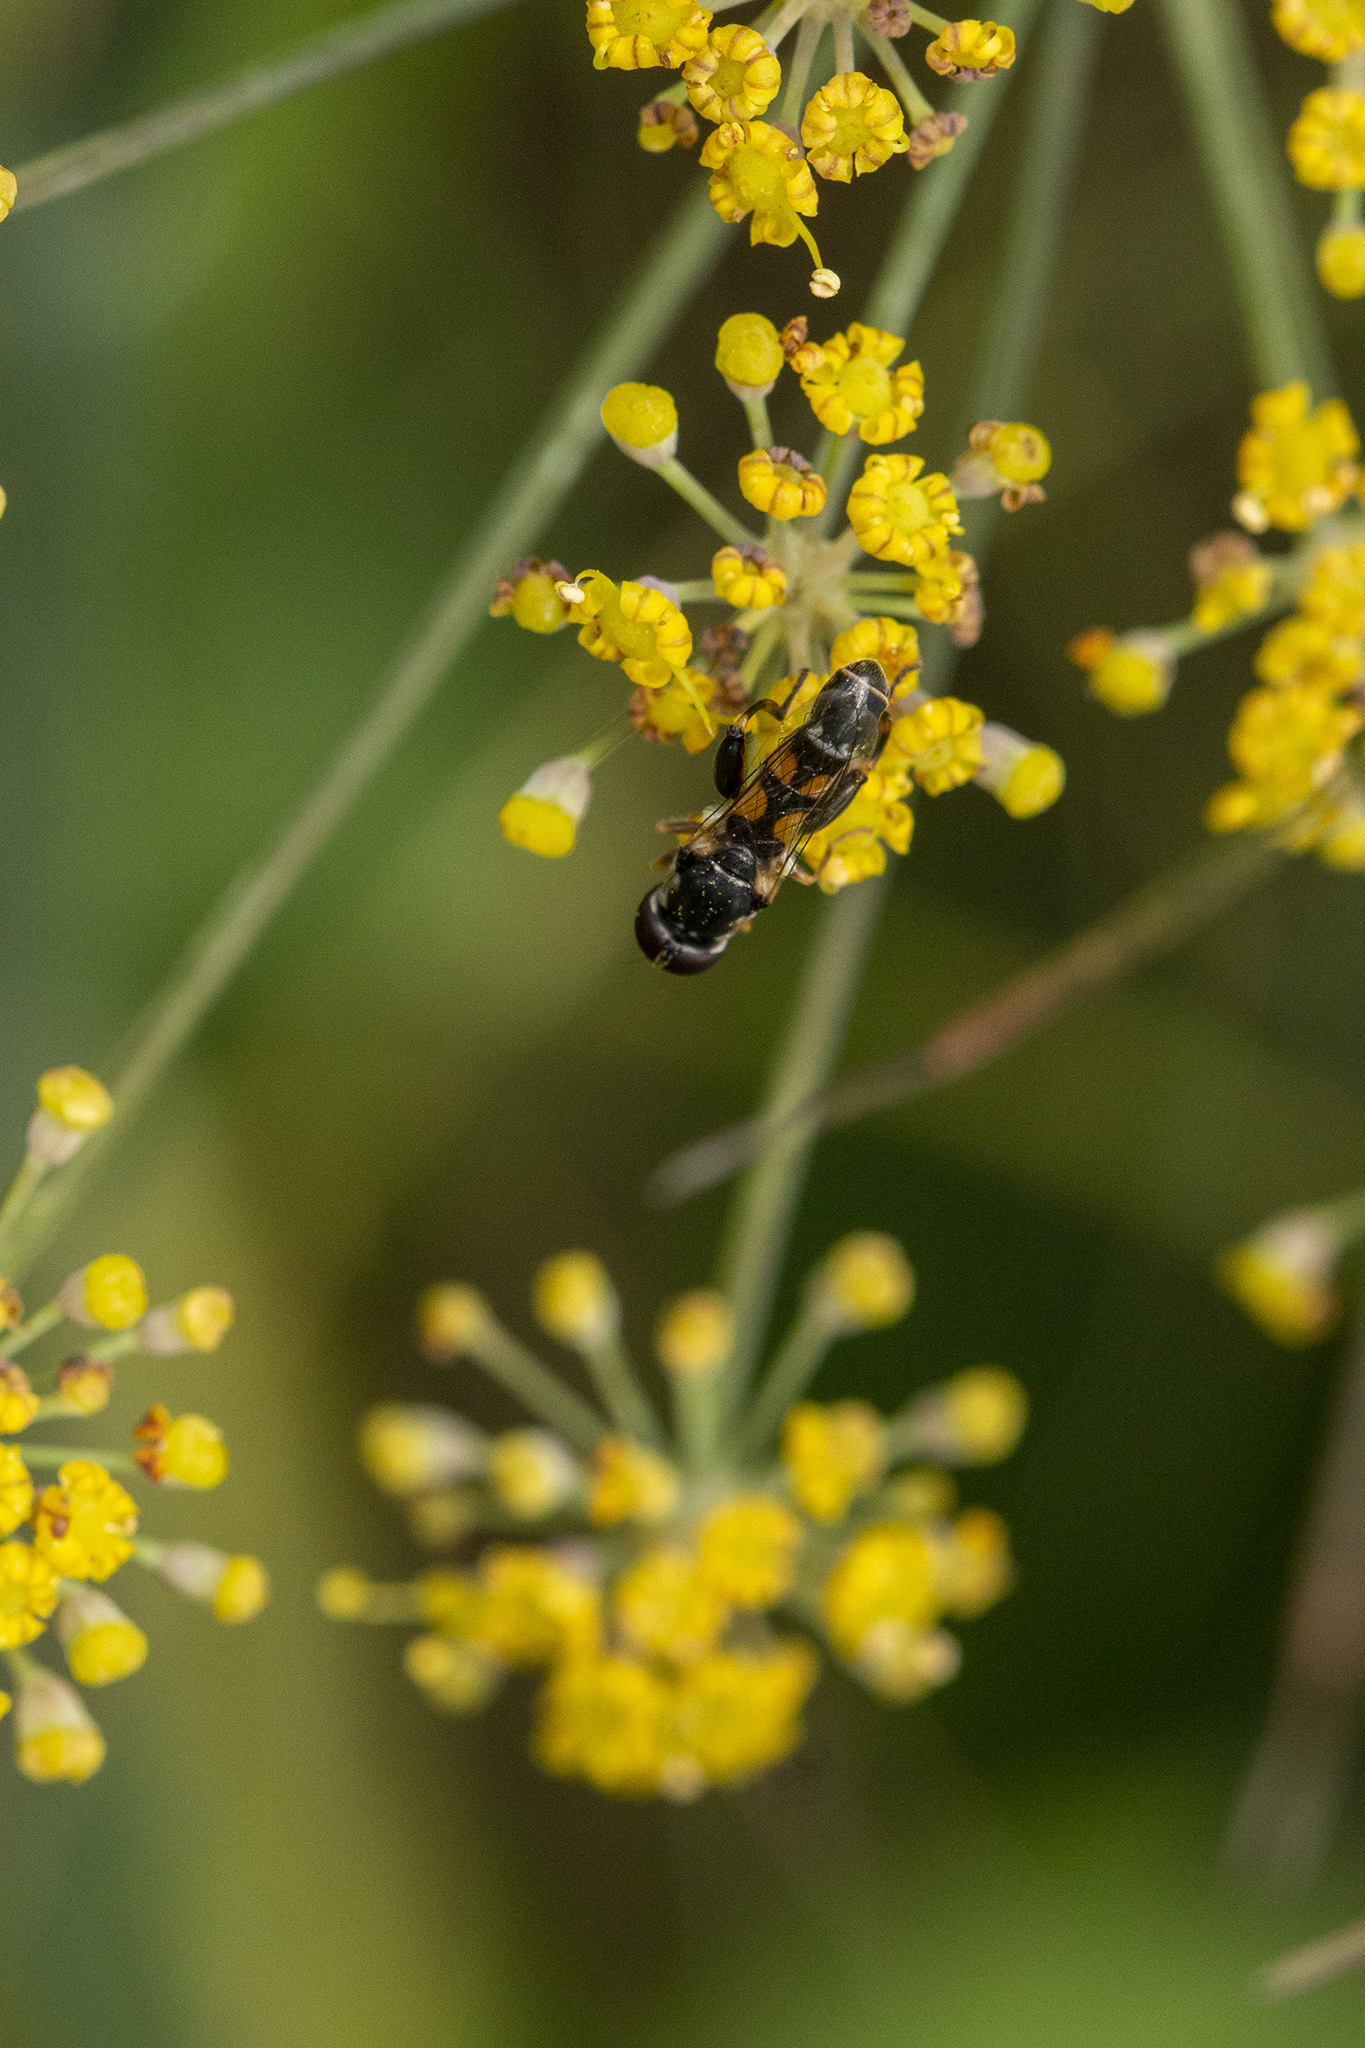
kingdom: Animalia
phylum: Arthropoda
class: Insecta
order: Diptera
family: Syrphidae
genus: Syritta
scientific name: Syritta pipiens
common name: Hover fly
